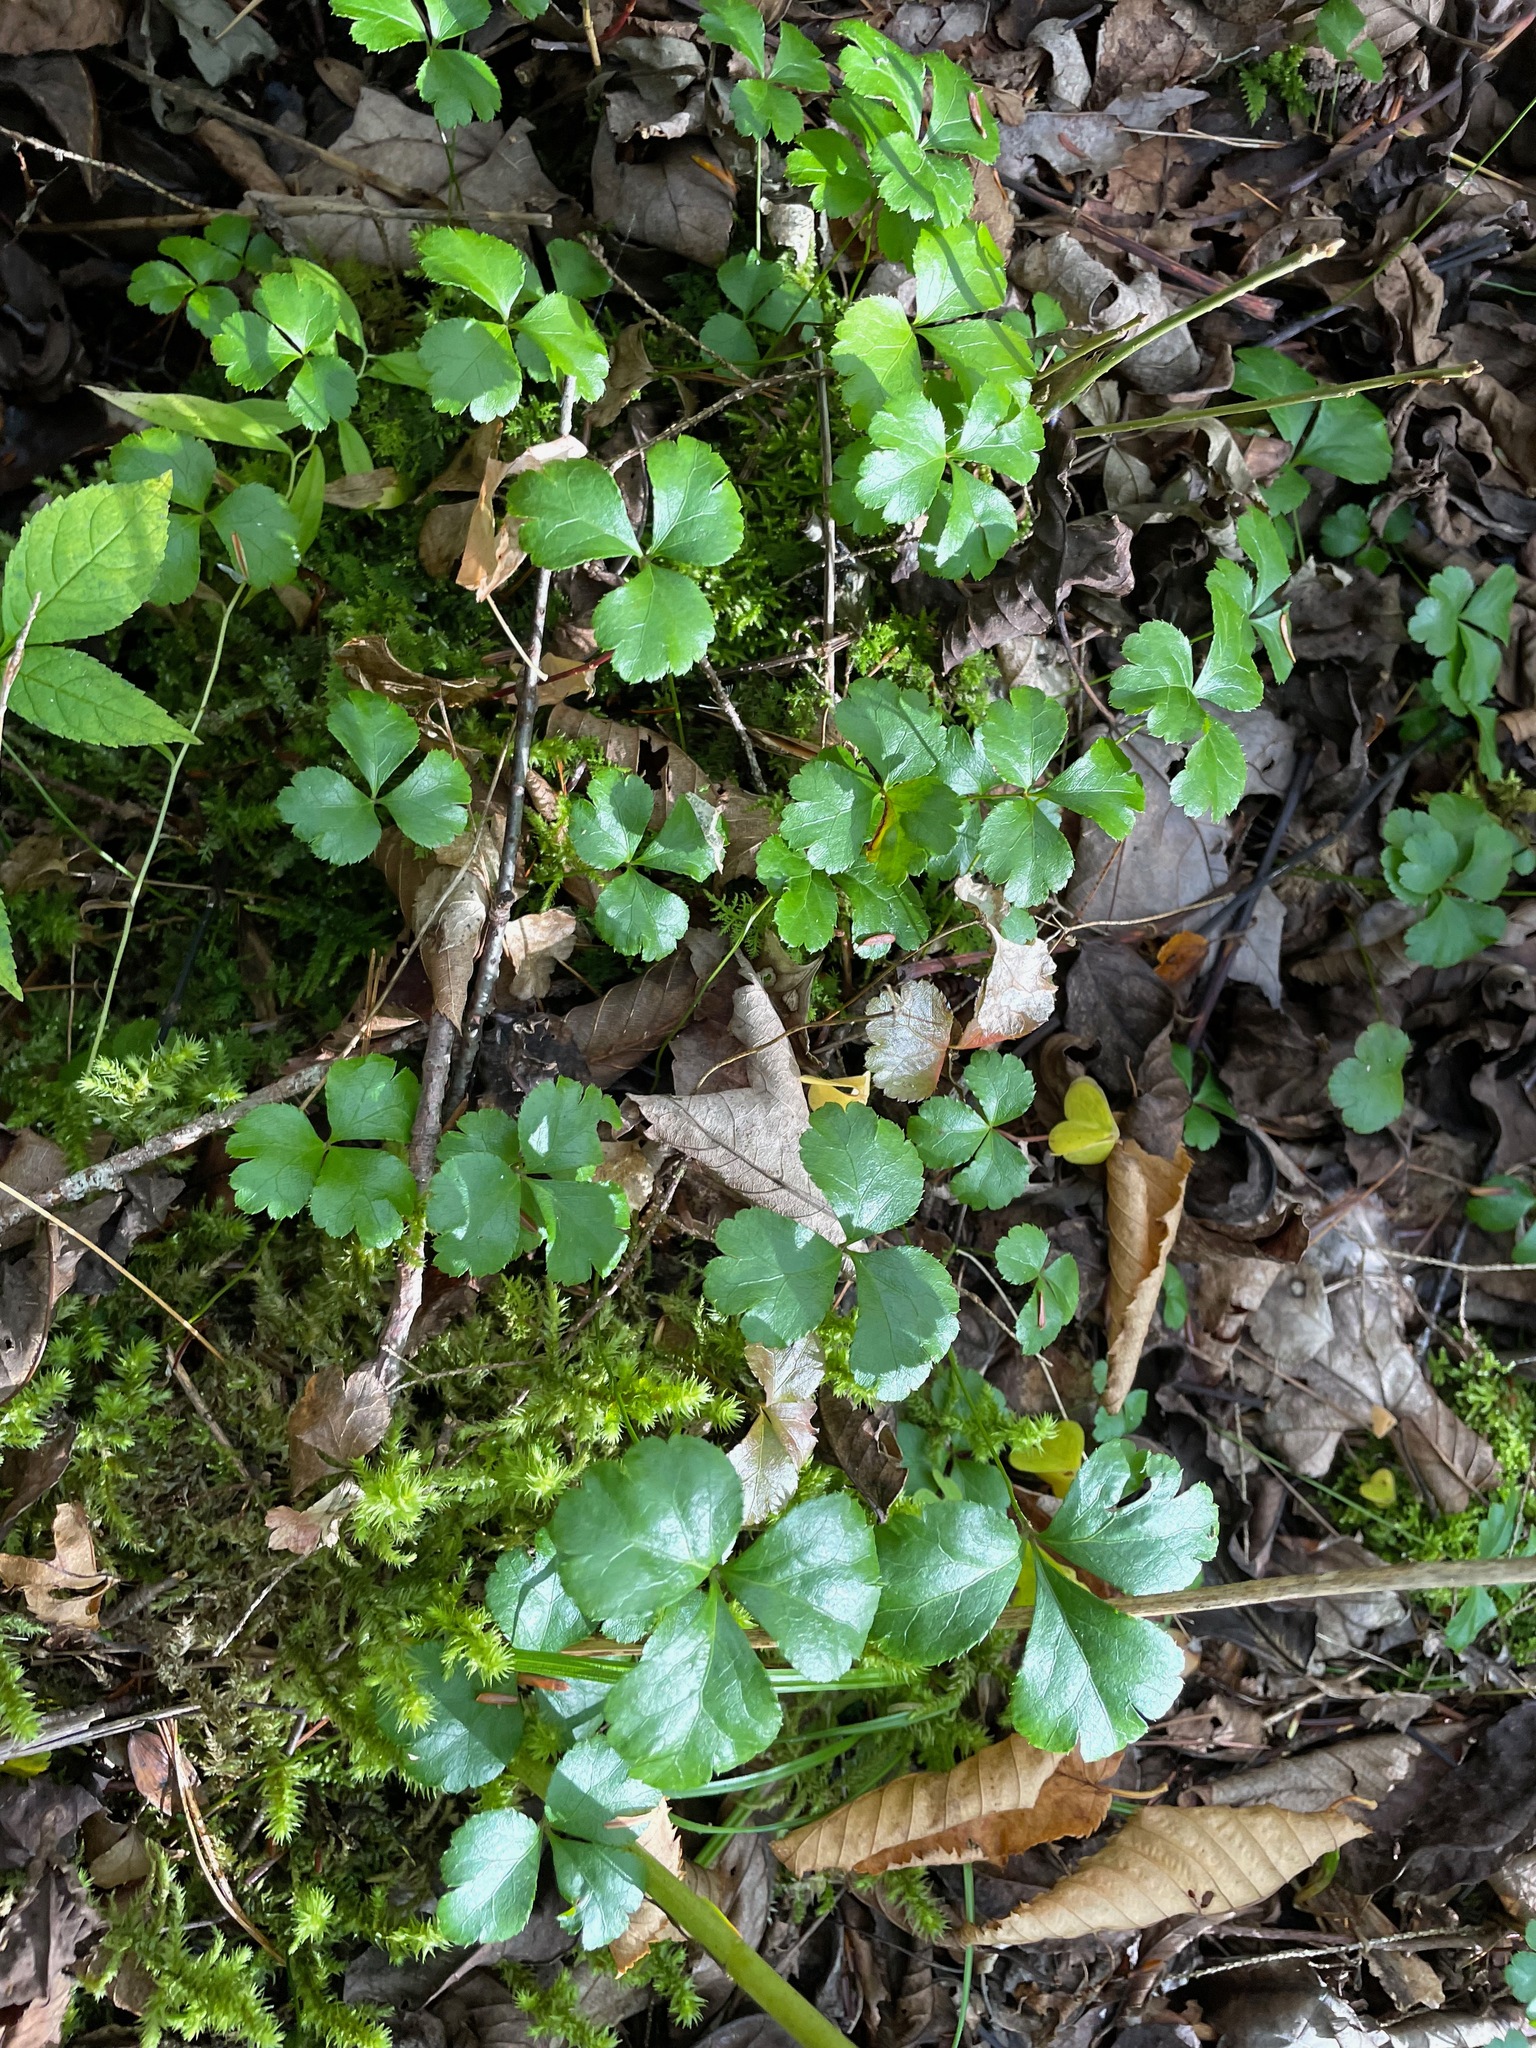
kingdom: Plantae
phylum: Tracheophyta
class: Magnoliopsida
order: Ranunculales
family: Ranunculaceae
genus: Coptis
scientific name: Coptis trifolia
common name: Canker-root
